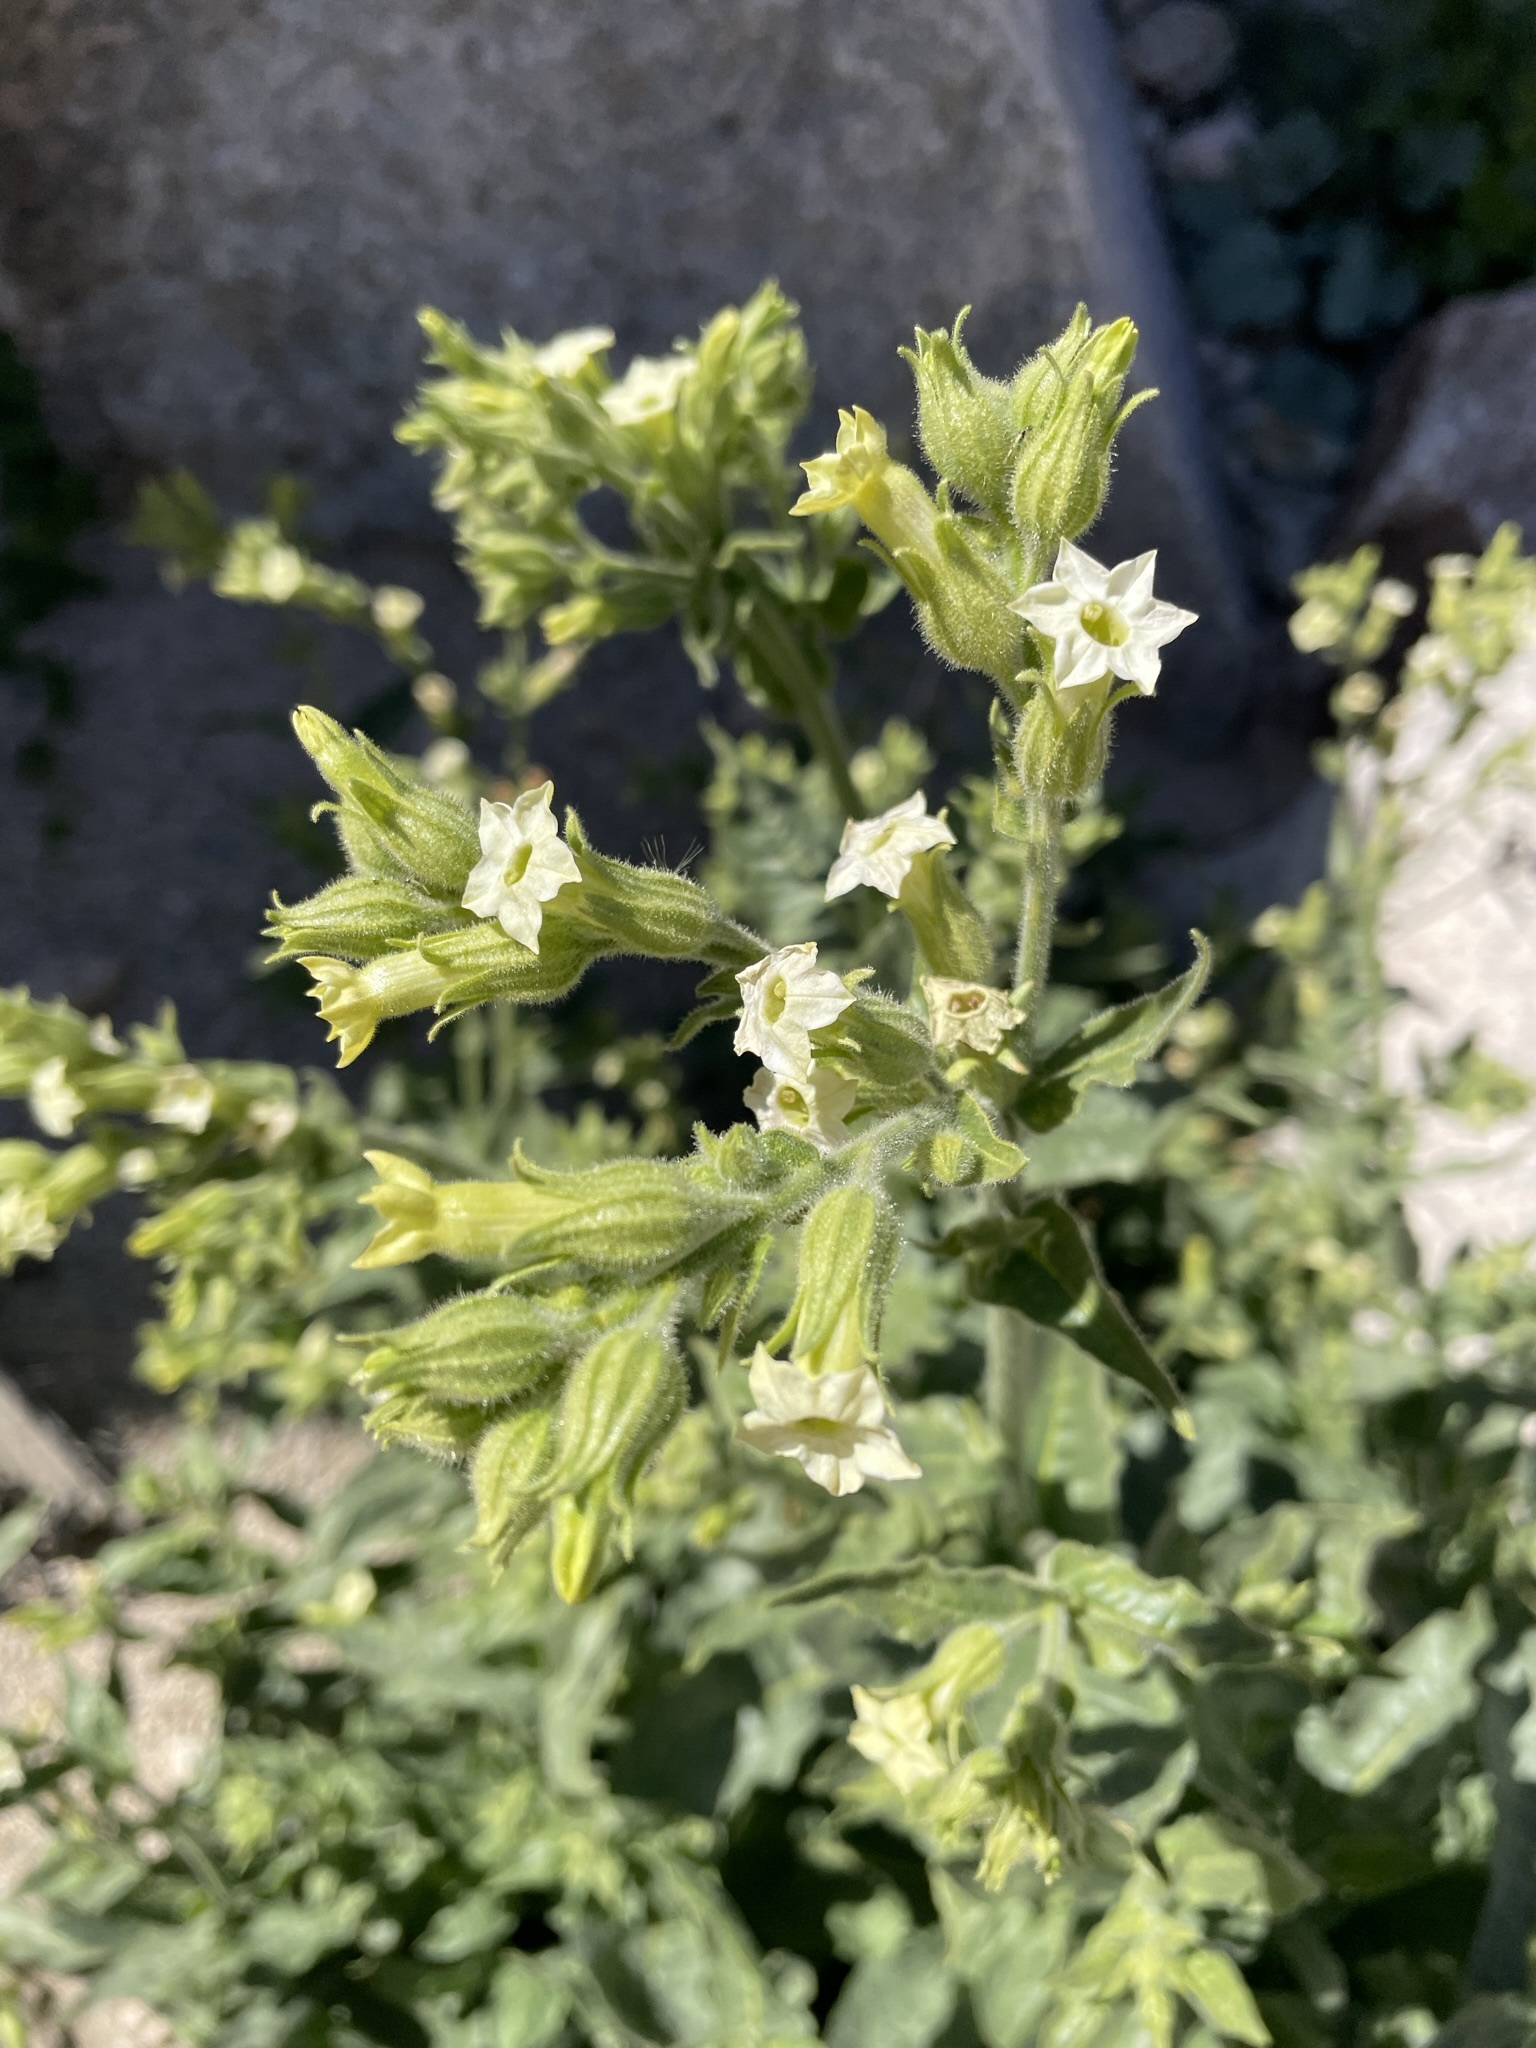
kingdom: Plantae
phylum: Tracheophyta
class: Magnoliopsida
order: Solanales
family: Solanaceae
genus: Nicotiana
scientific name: Nicotiana obtusifolia
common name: Desert tobacco
